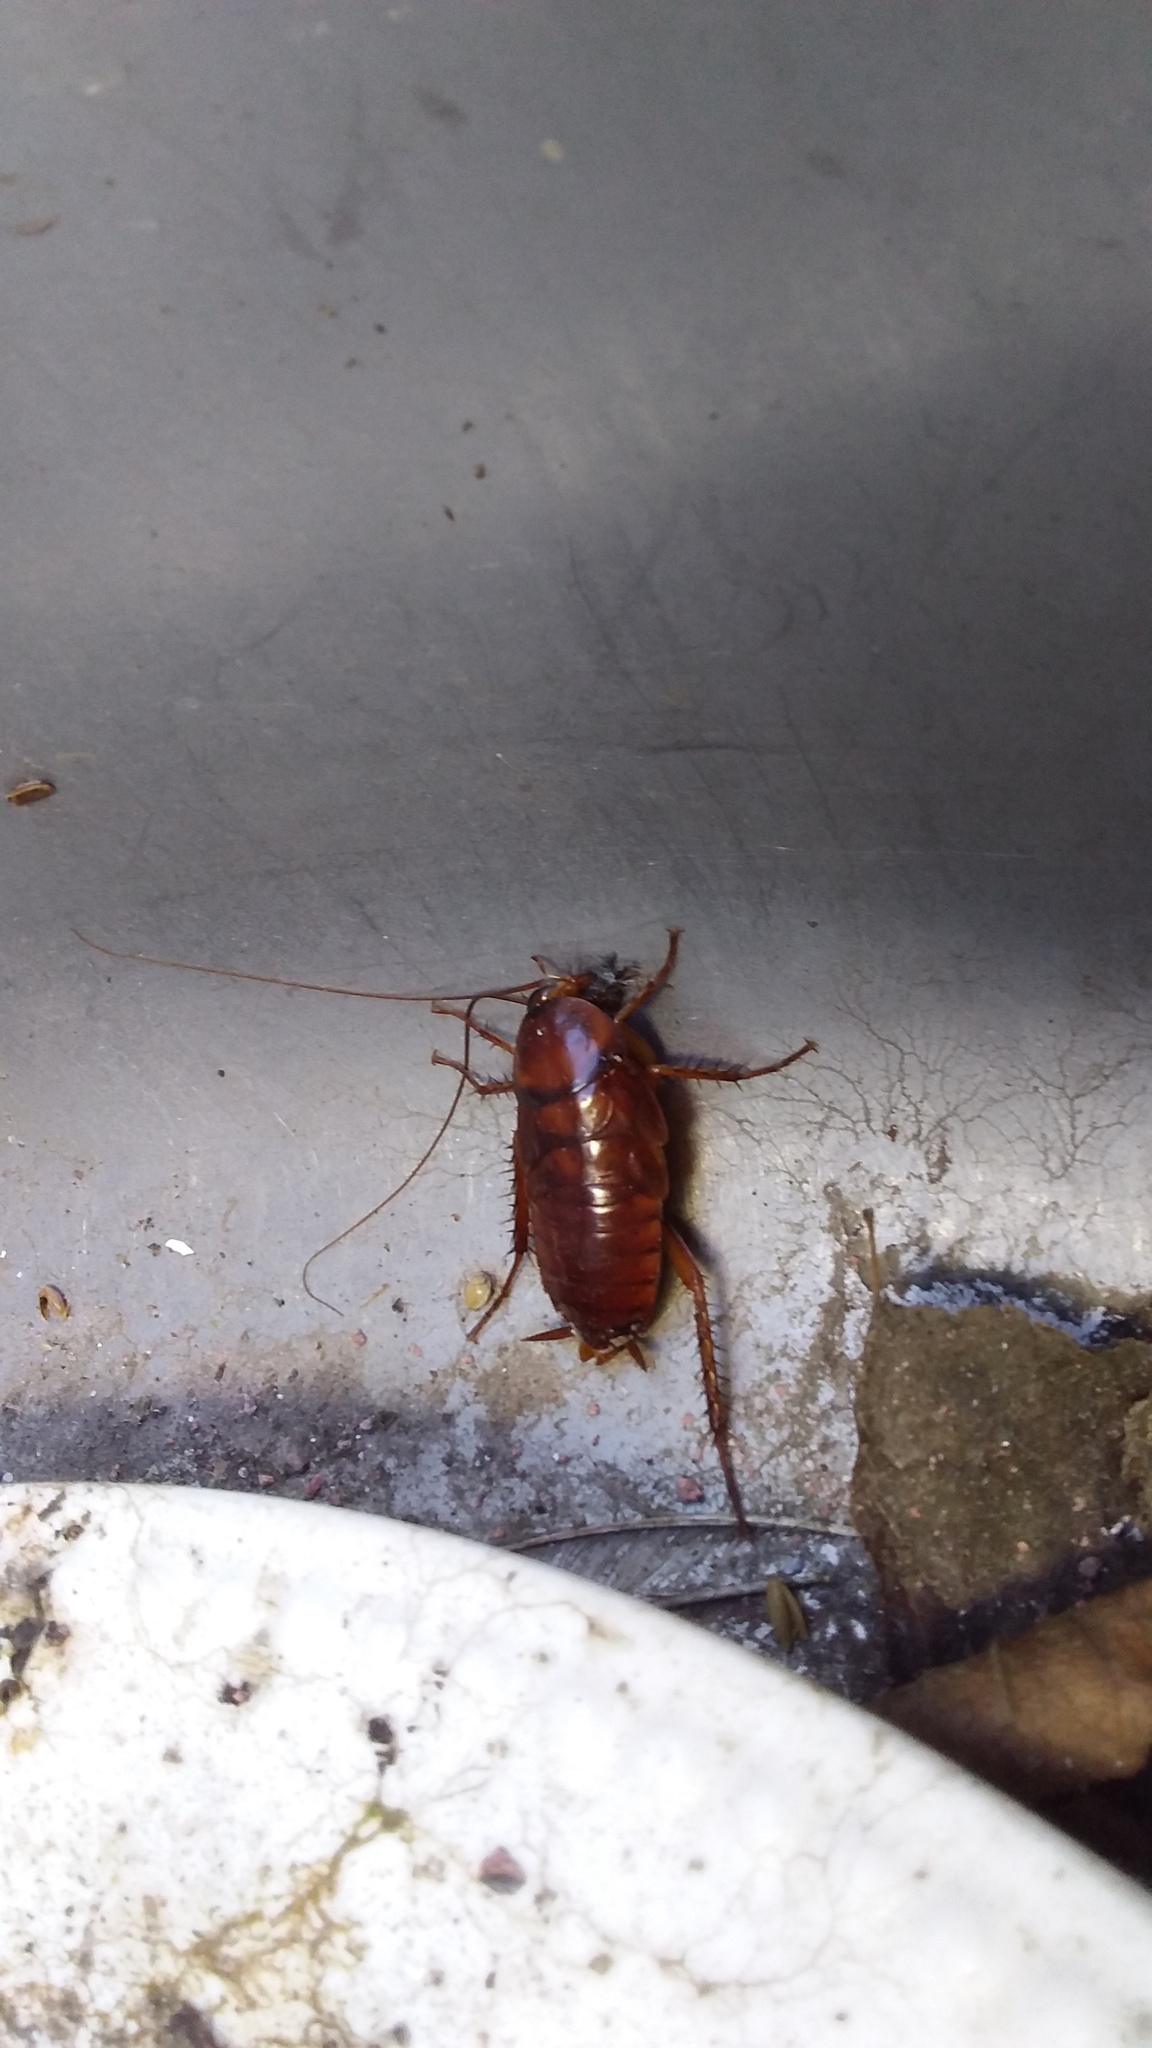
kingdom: Animalia
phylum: Arthropoda
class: Insecta
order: Blattodea
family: Blattidae
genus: Periplaneta
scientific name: Periplaneta americana
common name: American cockroach
